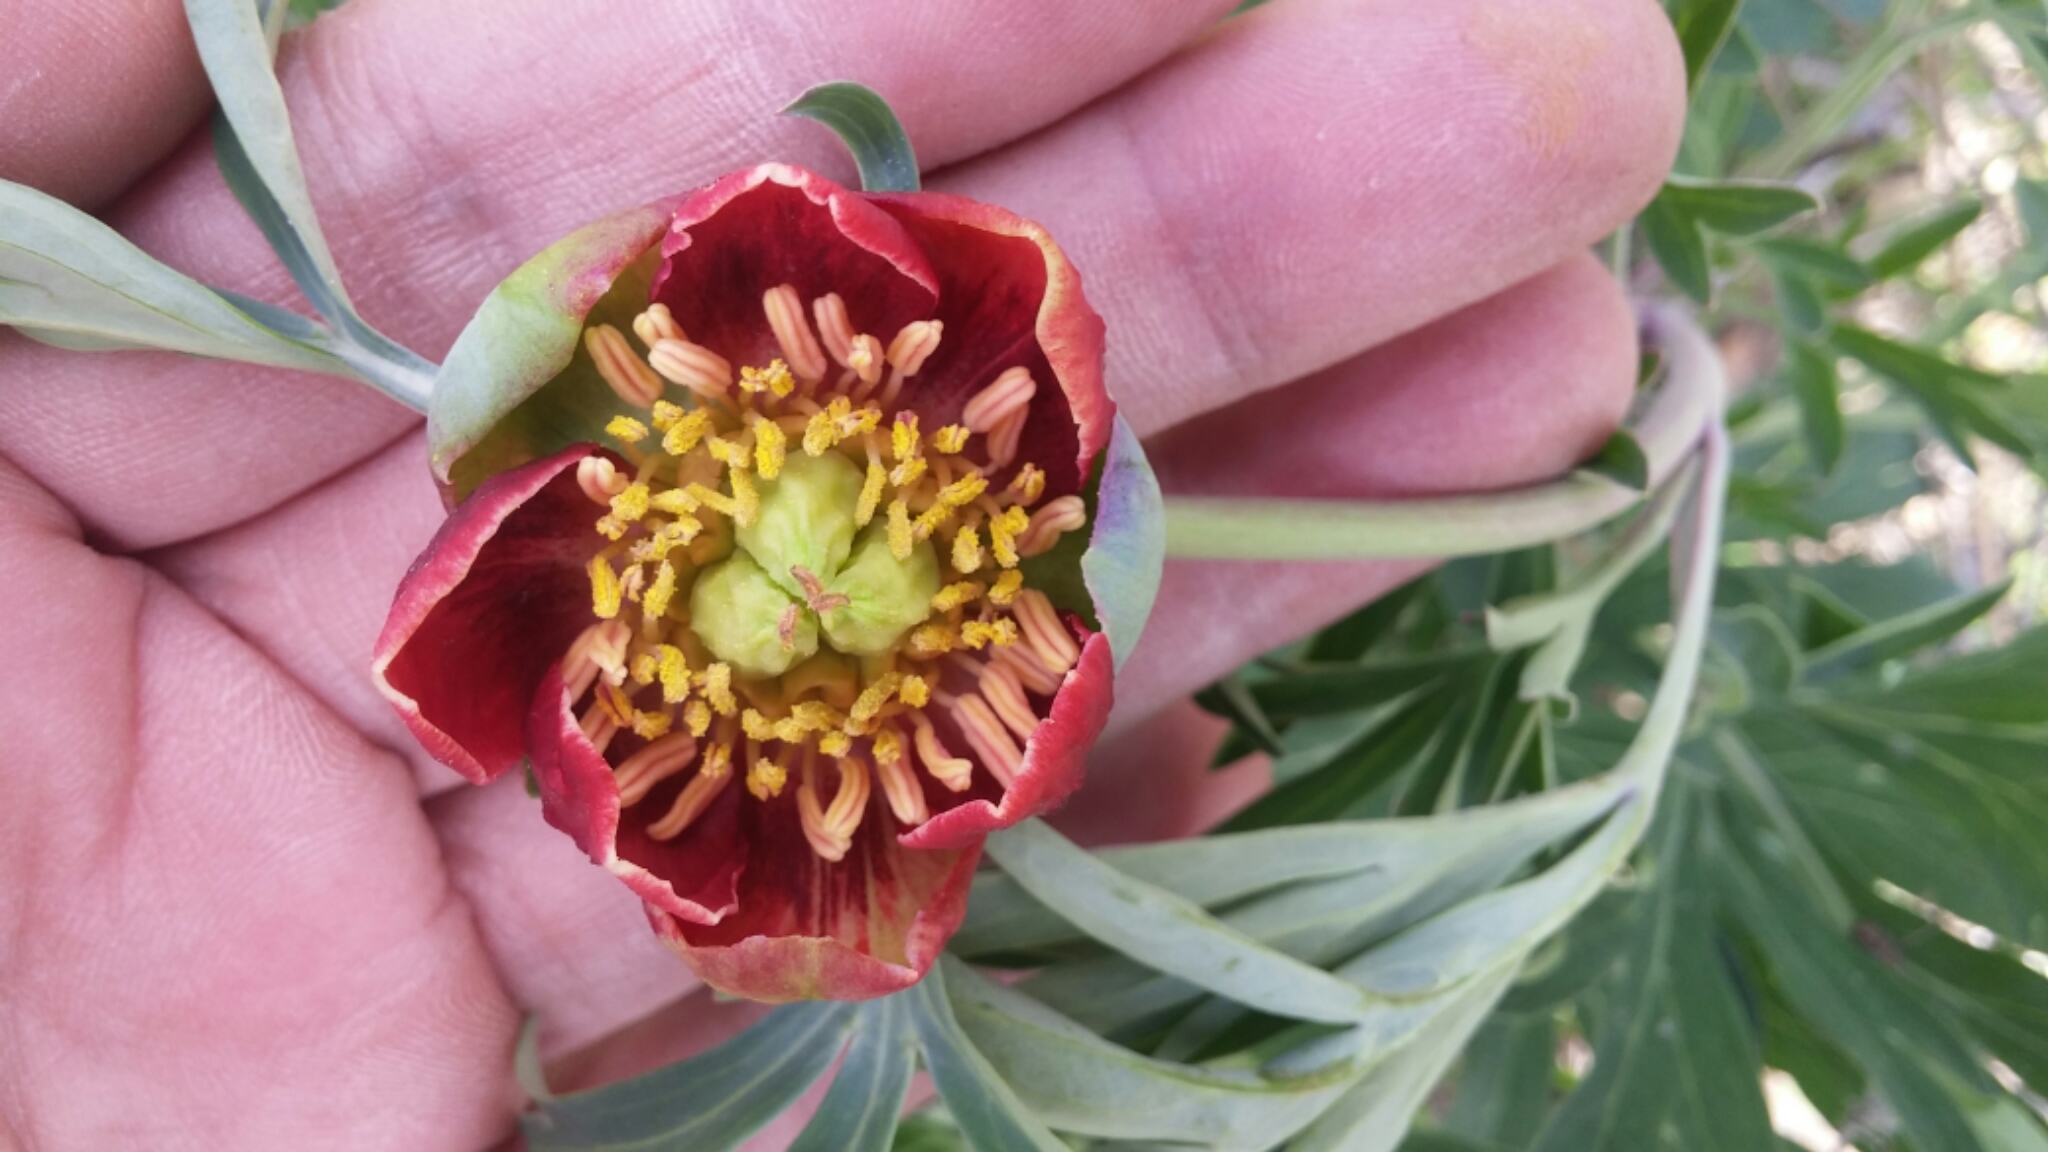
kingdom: Plantae
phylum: Tracheophyta
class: Magnoliopsida
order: Saxifragales
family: Paeoniaceae
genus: Paeonia
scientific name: Paeonia californica
